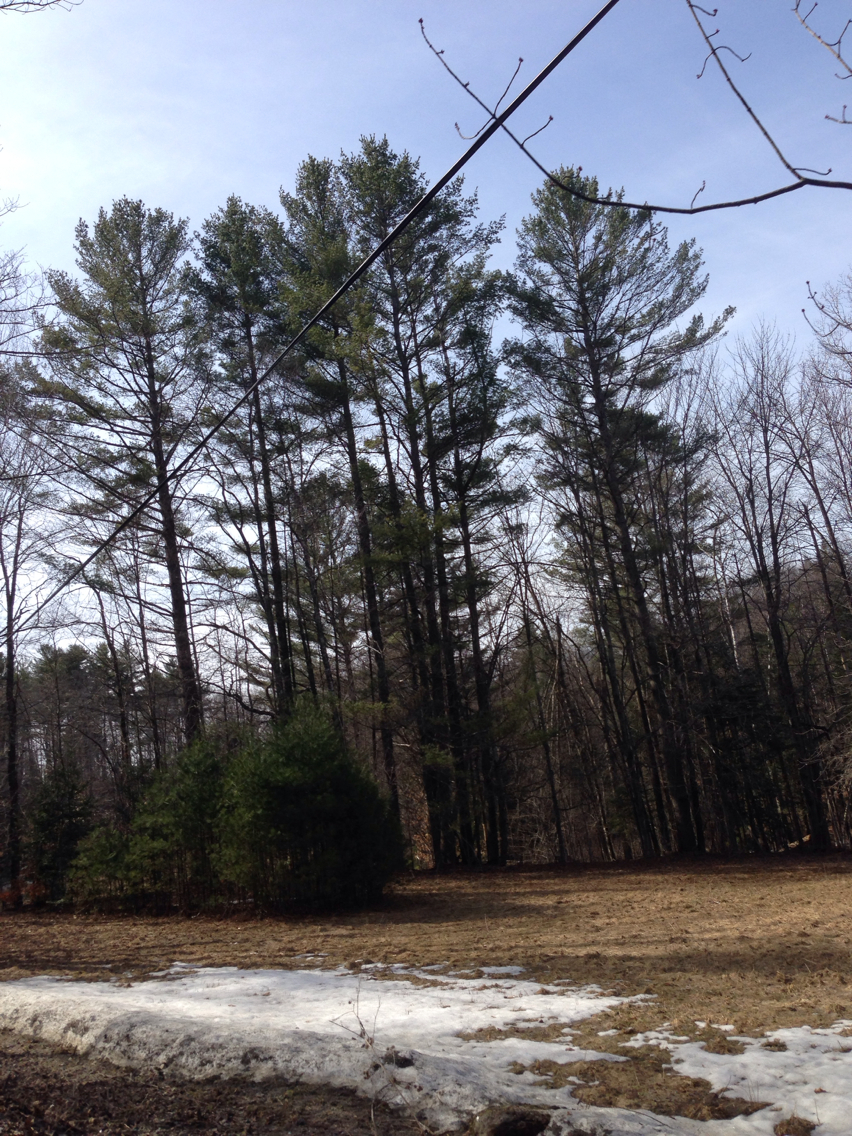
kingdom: Plantae
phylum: Tracheophyta
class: Pinopsida
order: Pinales
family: Pinaceae
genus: Pinus
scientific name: Pinus strobus
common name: Weymouth pine
